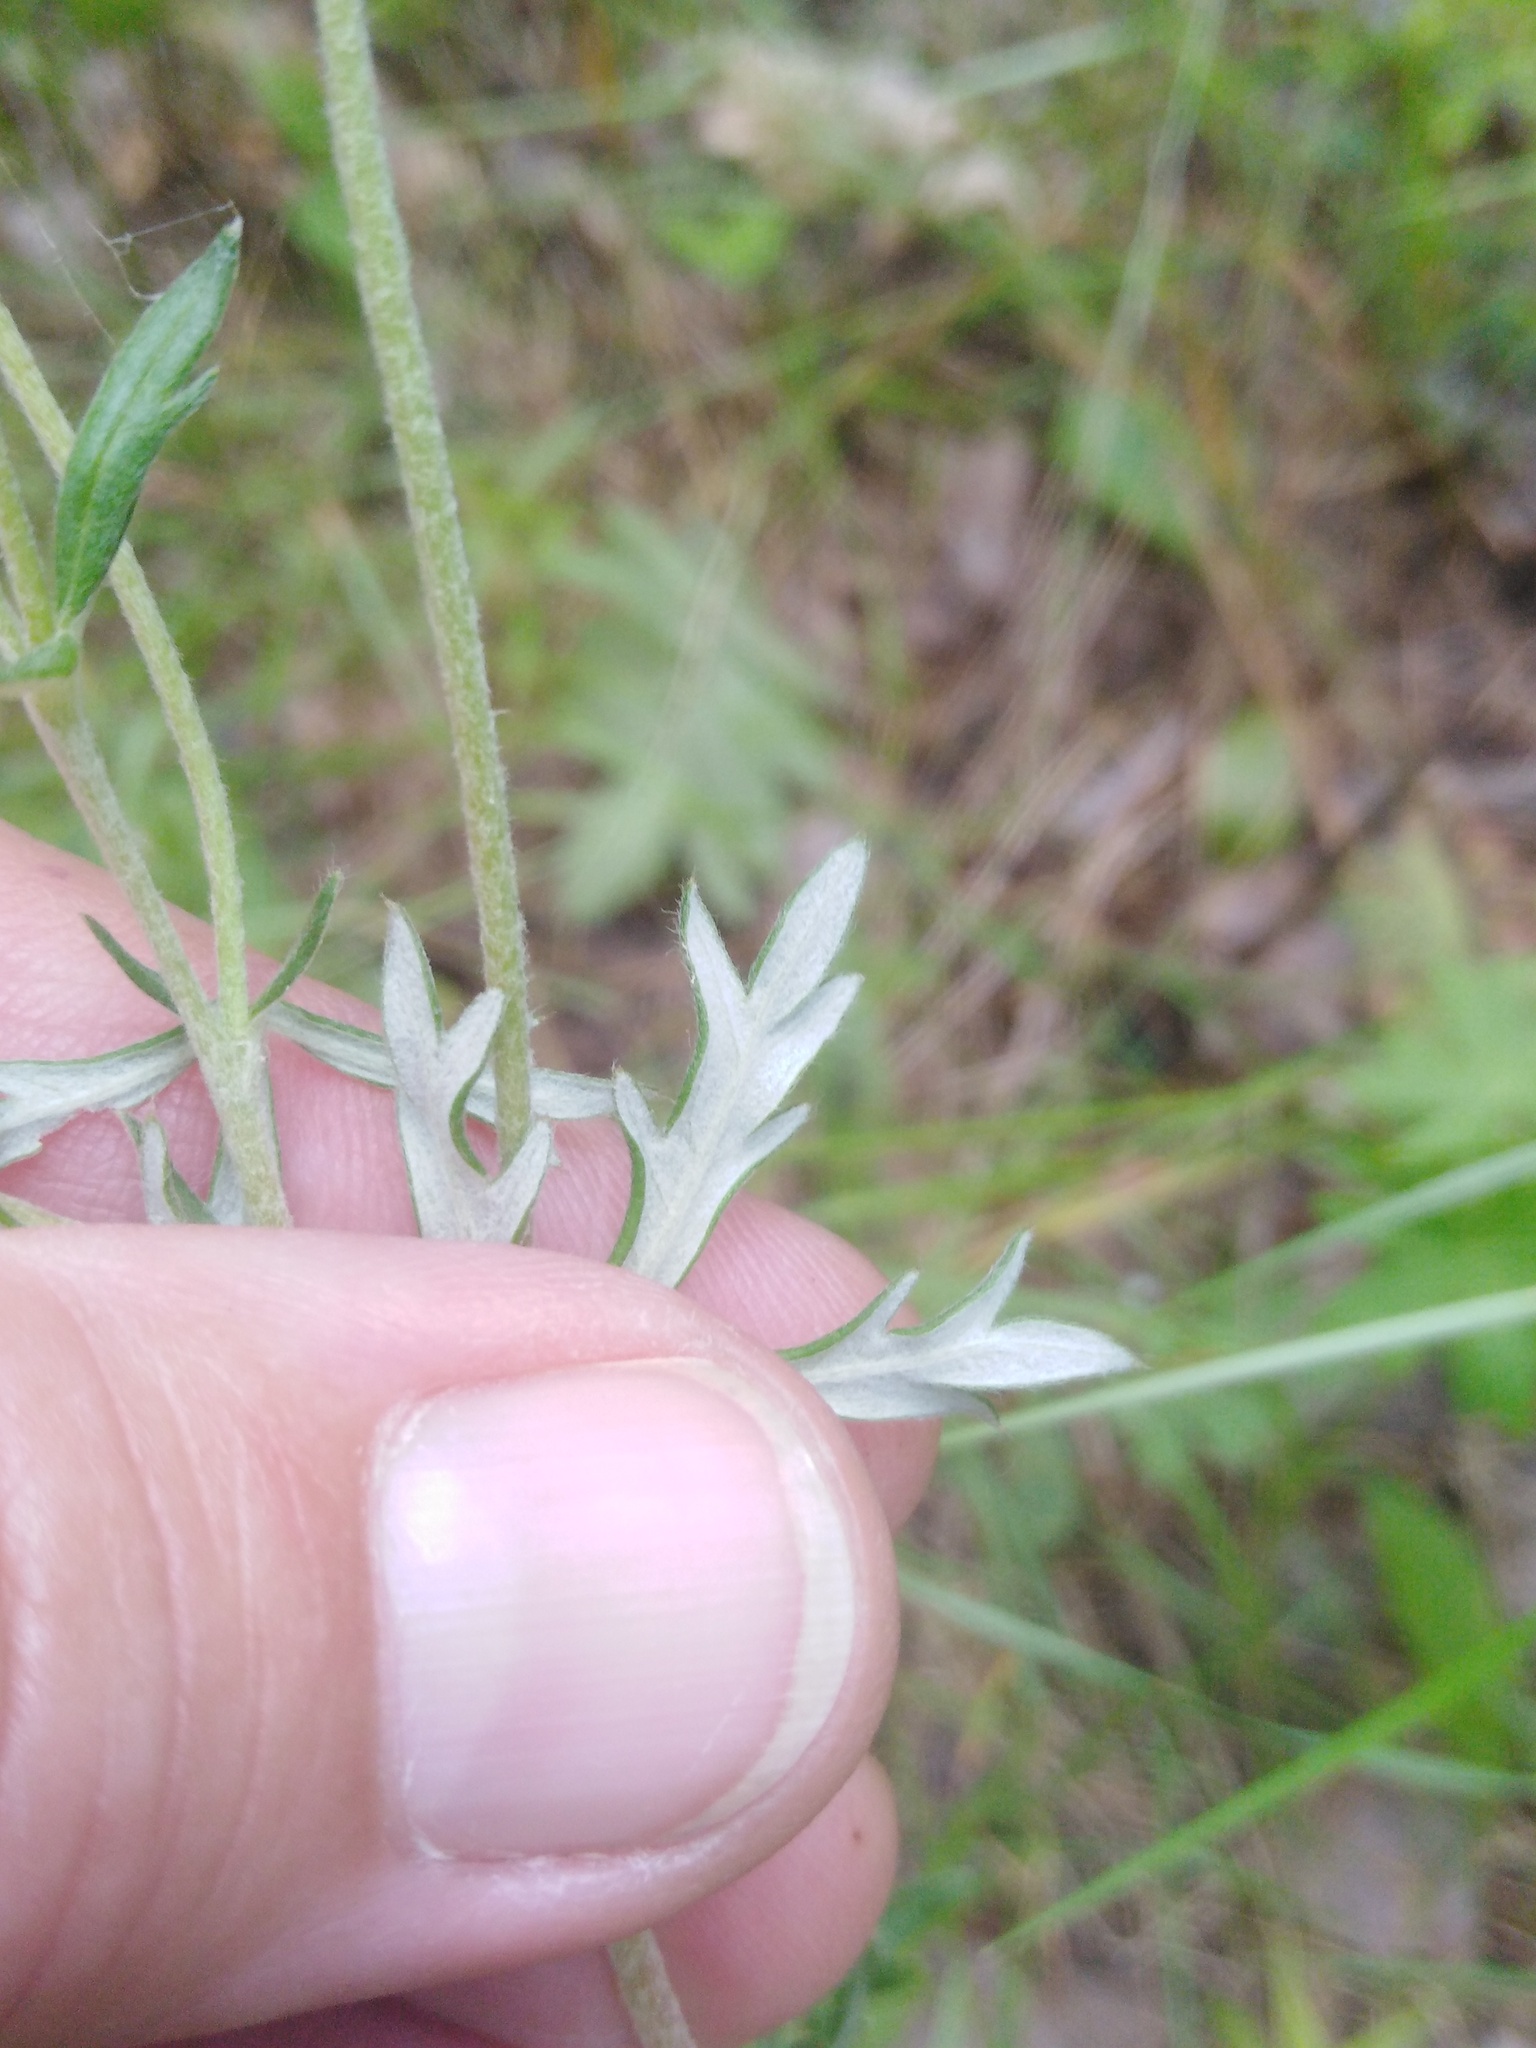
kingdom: Plantae
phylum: Tracheophyta
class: Magnoliopsida
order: Rosales
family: Rosaceae
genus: Potentilla
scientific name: Potentilla argentea
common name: Hoary cinquefoil
